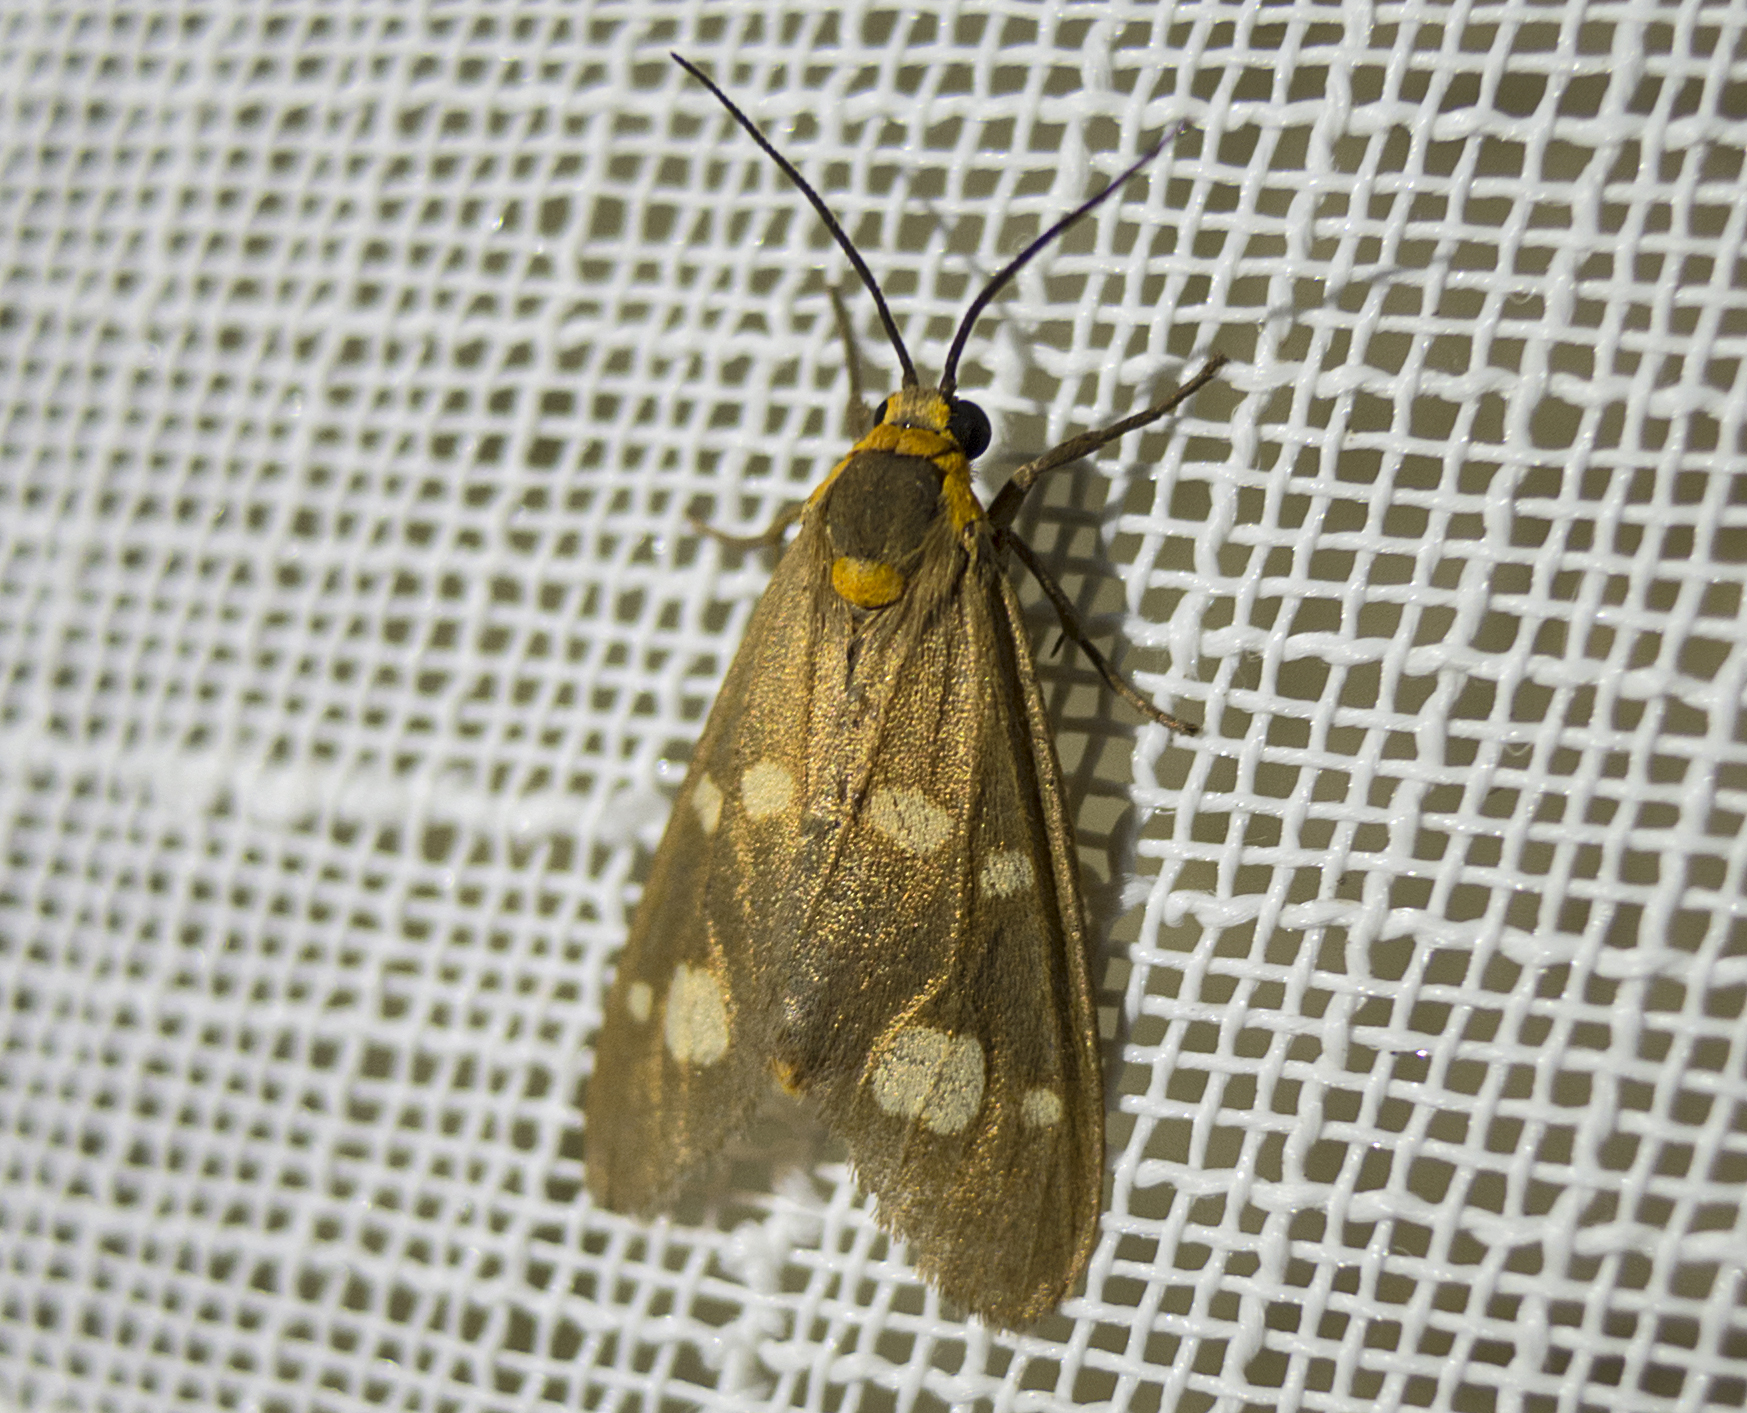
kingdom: Animalia
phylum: Arthropoda
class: Insecta
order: Lepidoptera
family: Erebidae
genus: Dysauxes
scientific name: Dysauxes punctata
